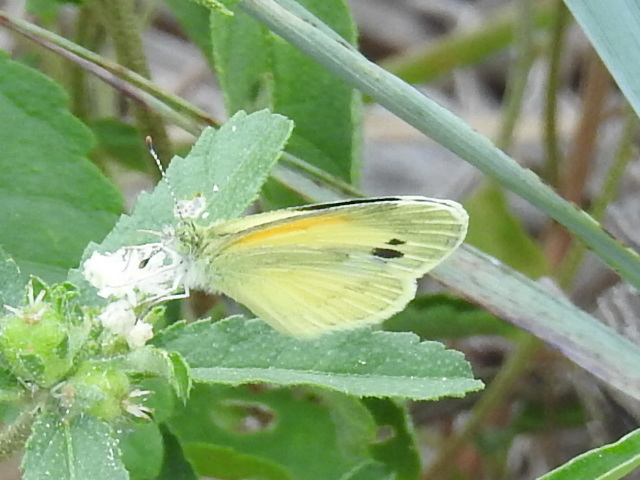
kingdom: Animalia
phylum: Arthropoda
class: Insecta
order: Lepidoptera
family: Pieridae
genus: Nathalis
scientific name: Nathalis iole
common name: Dainty sulphur
